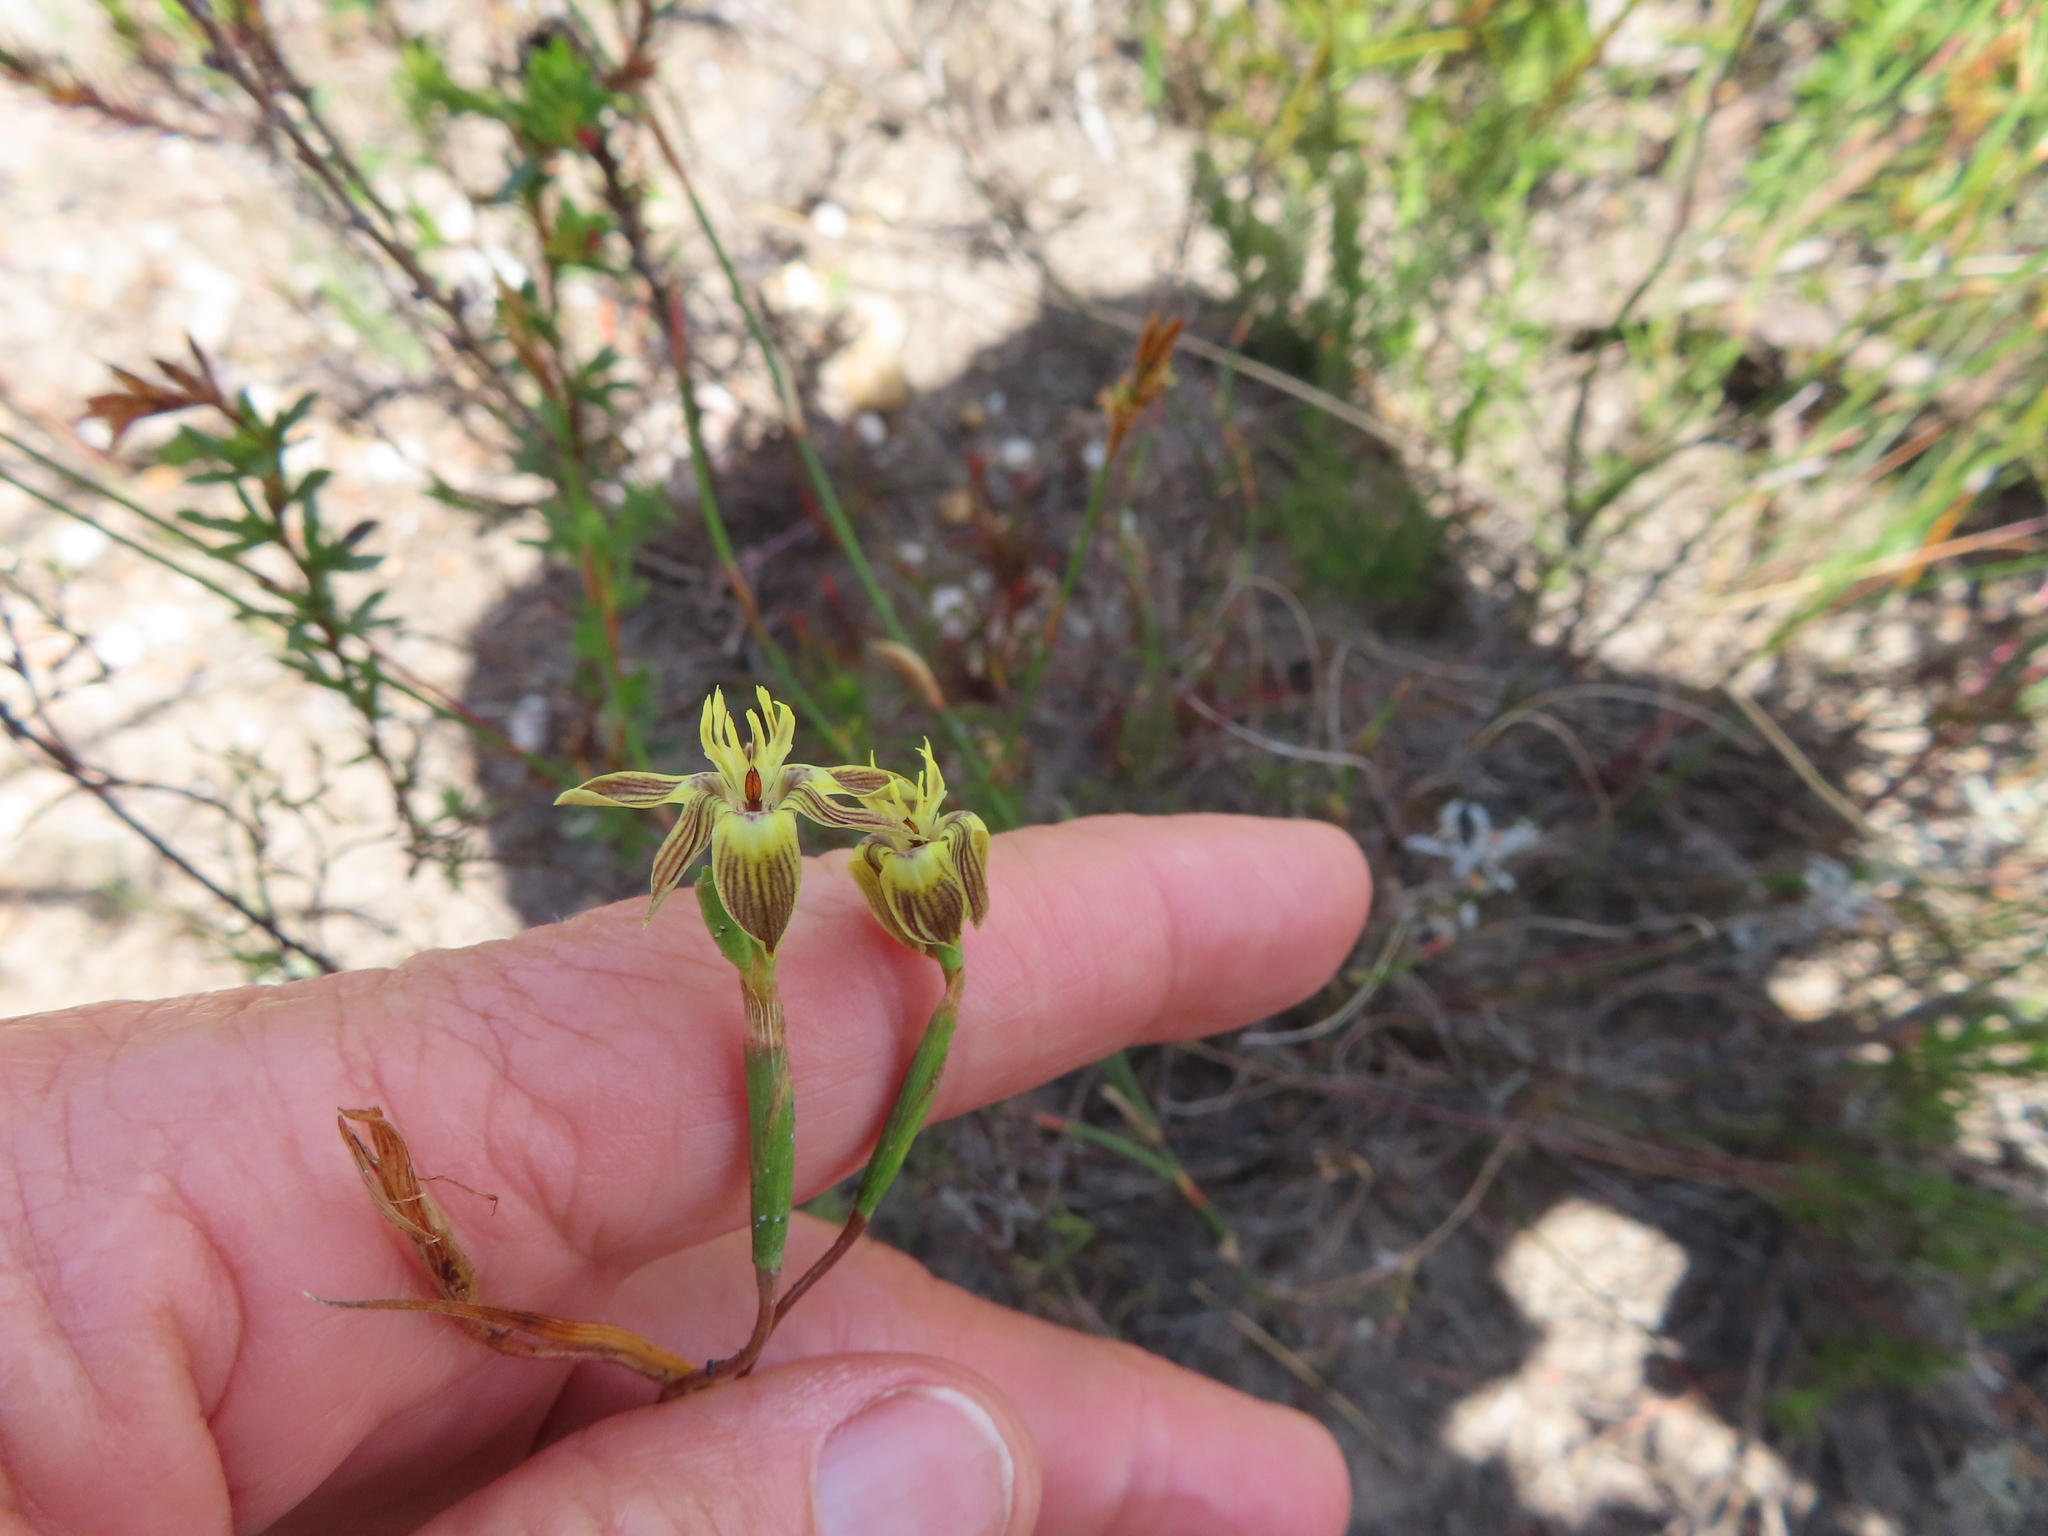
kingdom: Plantae
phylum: Tracheophyta
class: Liliopsida
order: Asparagales
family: Iridaceae
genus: Moraea
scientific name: Moraea inconspicua
